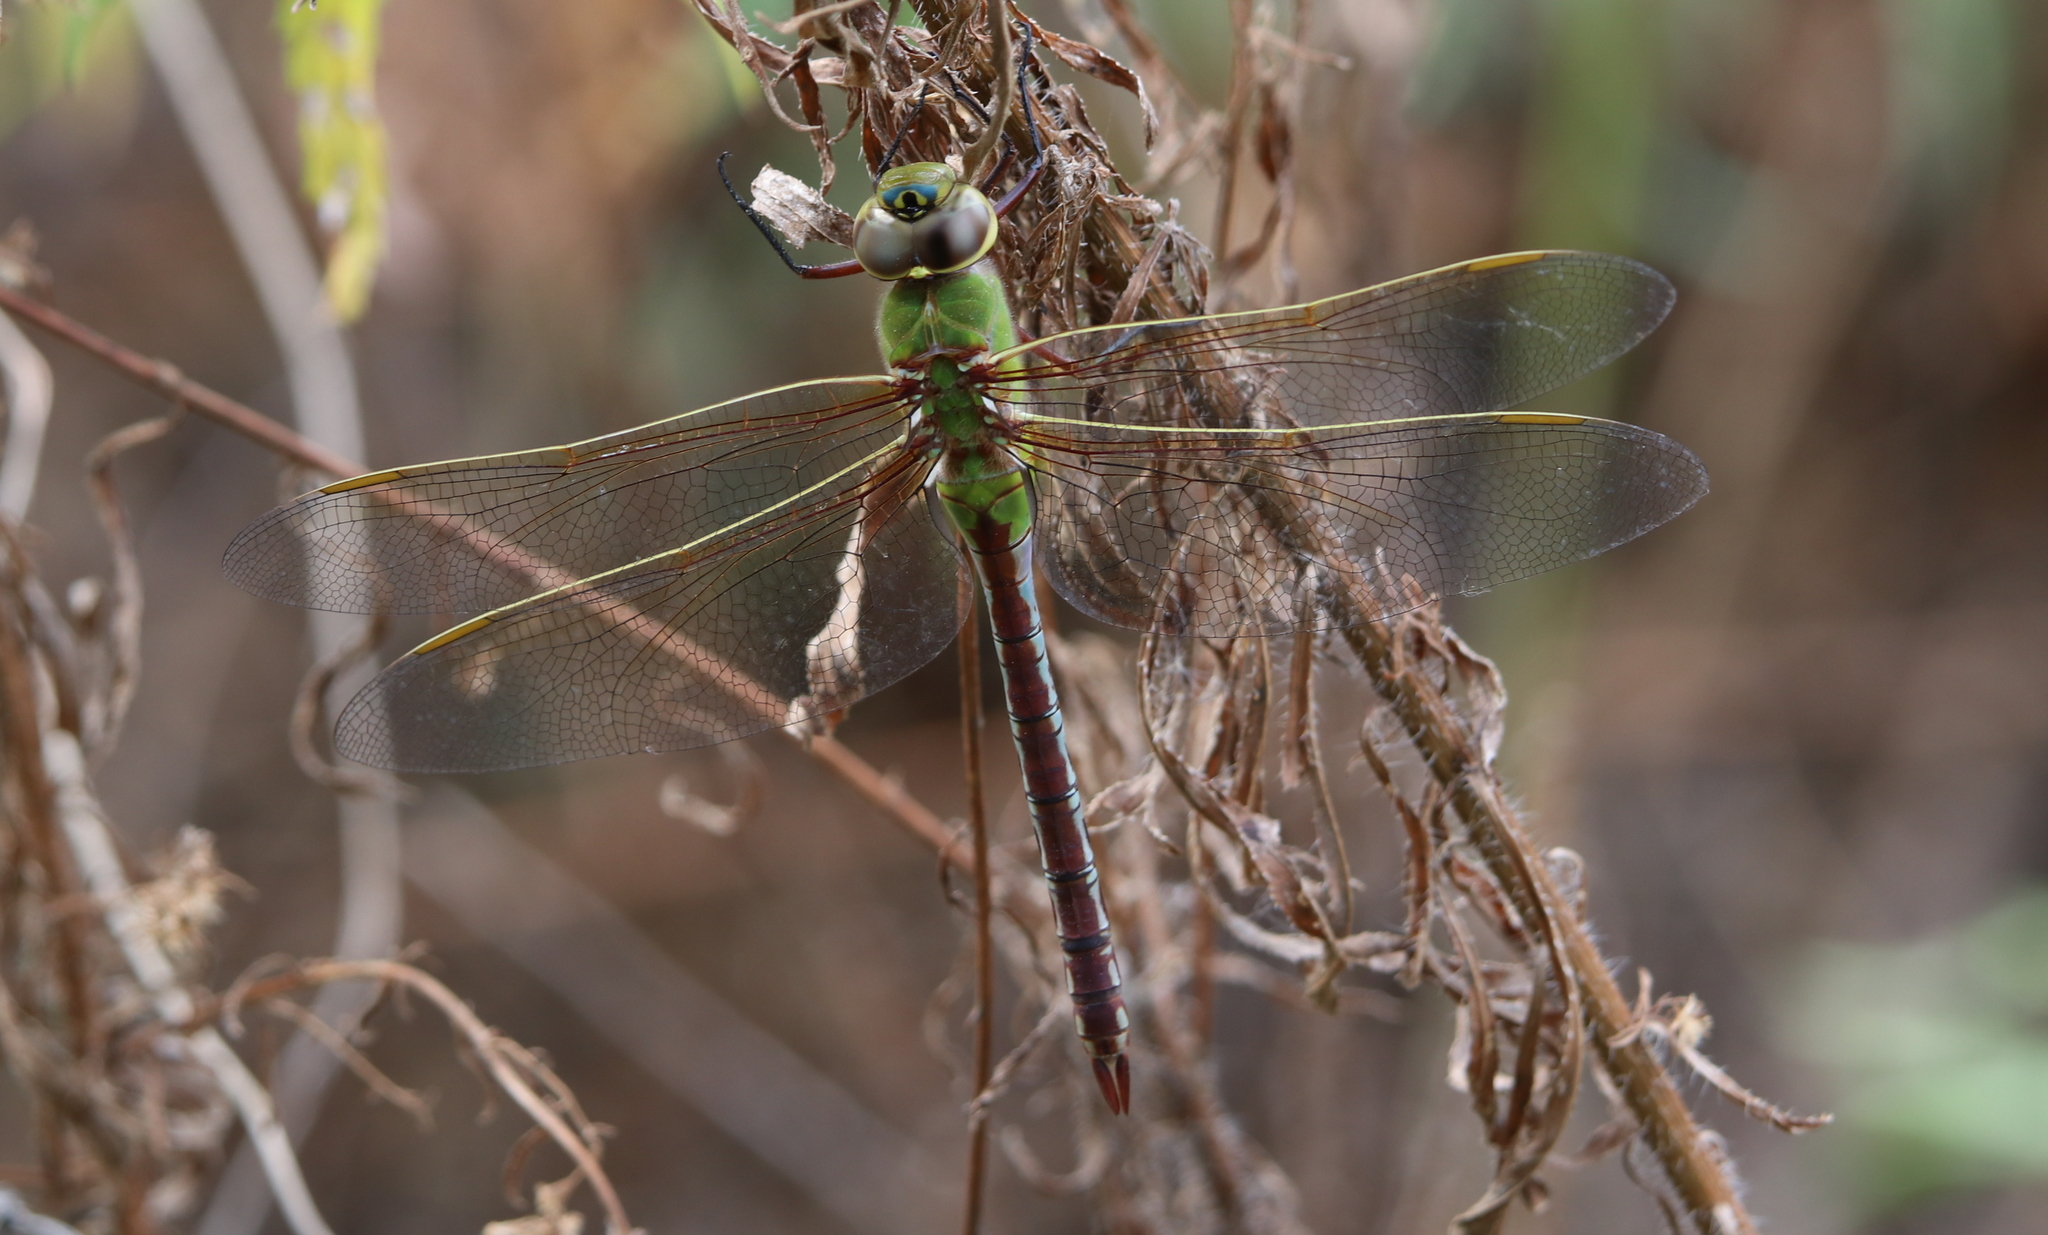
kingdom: Animalia
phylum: Arthropoda
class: Insecta
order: Odonata
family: Aeshnidae
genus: Anax
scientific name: Anax junius
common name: Common green darner
